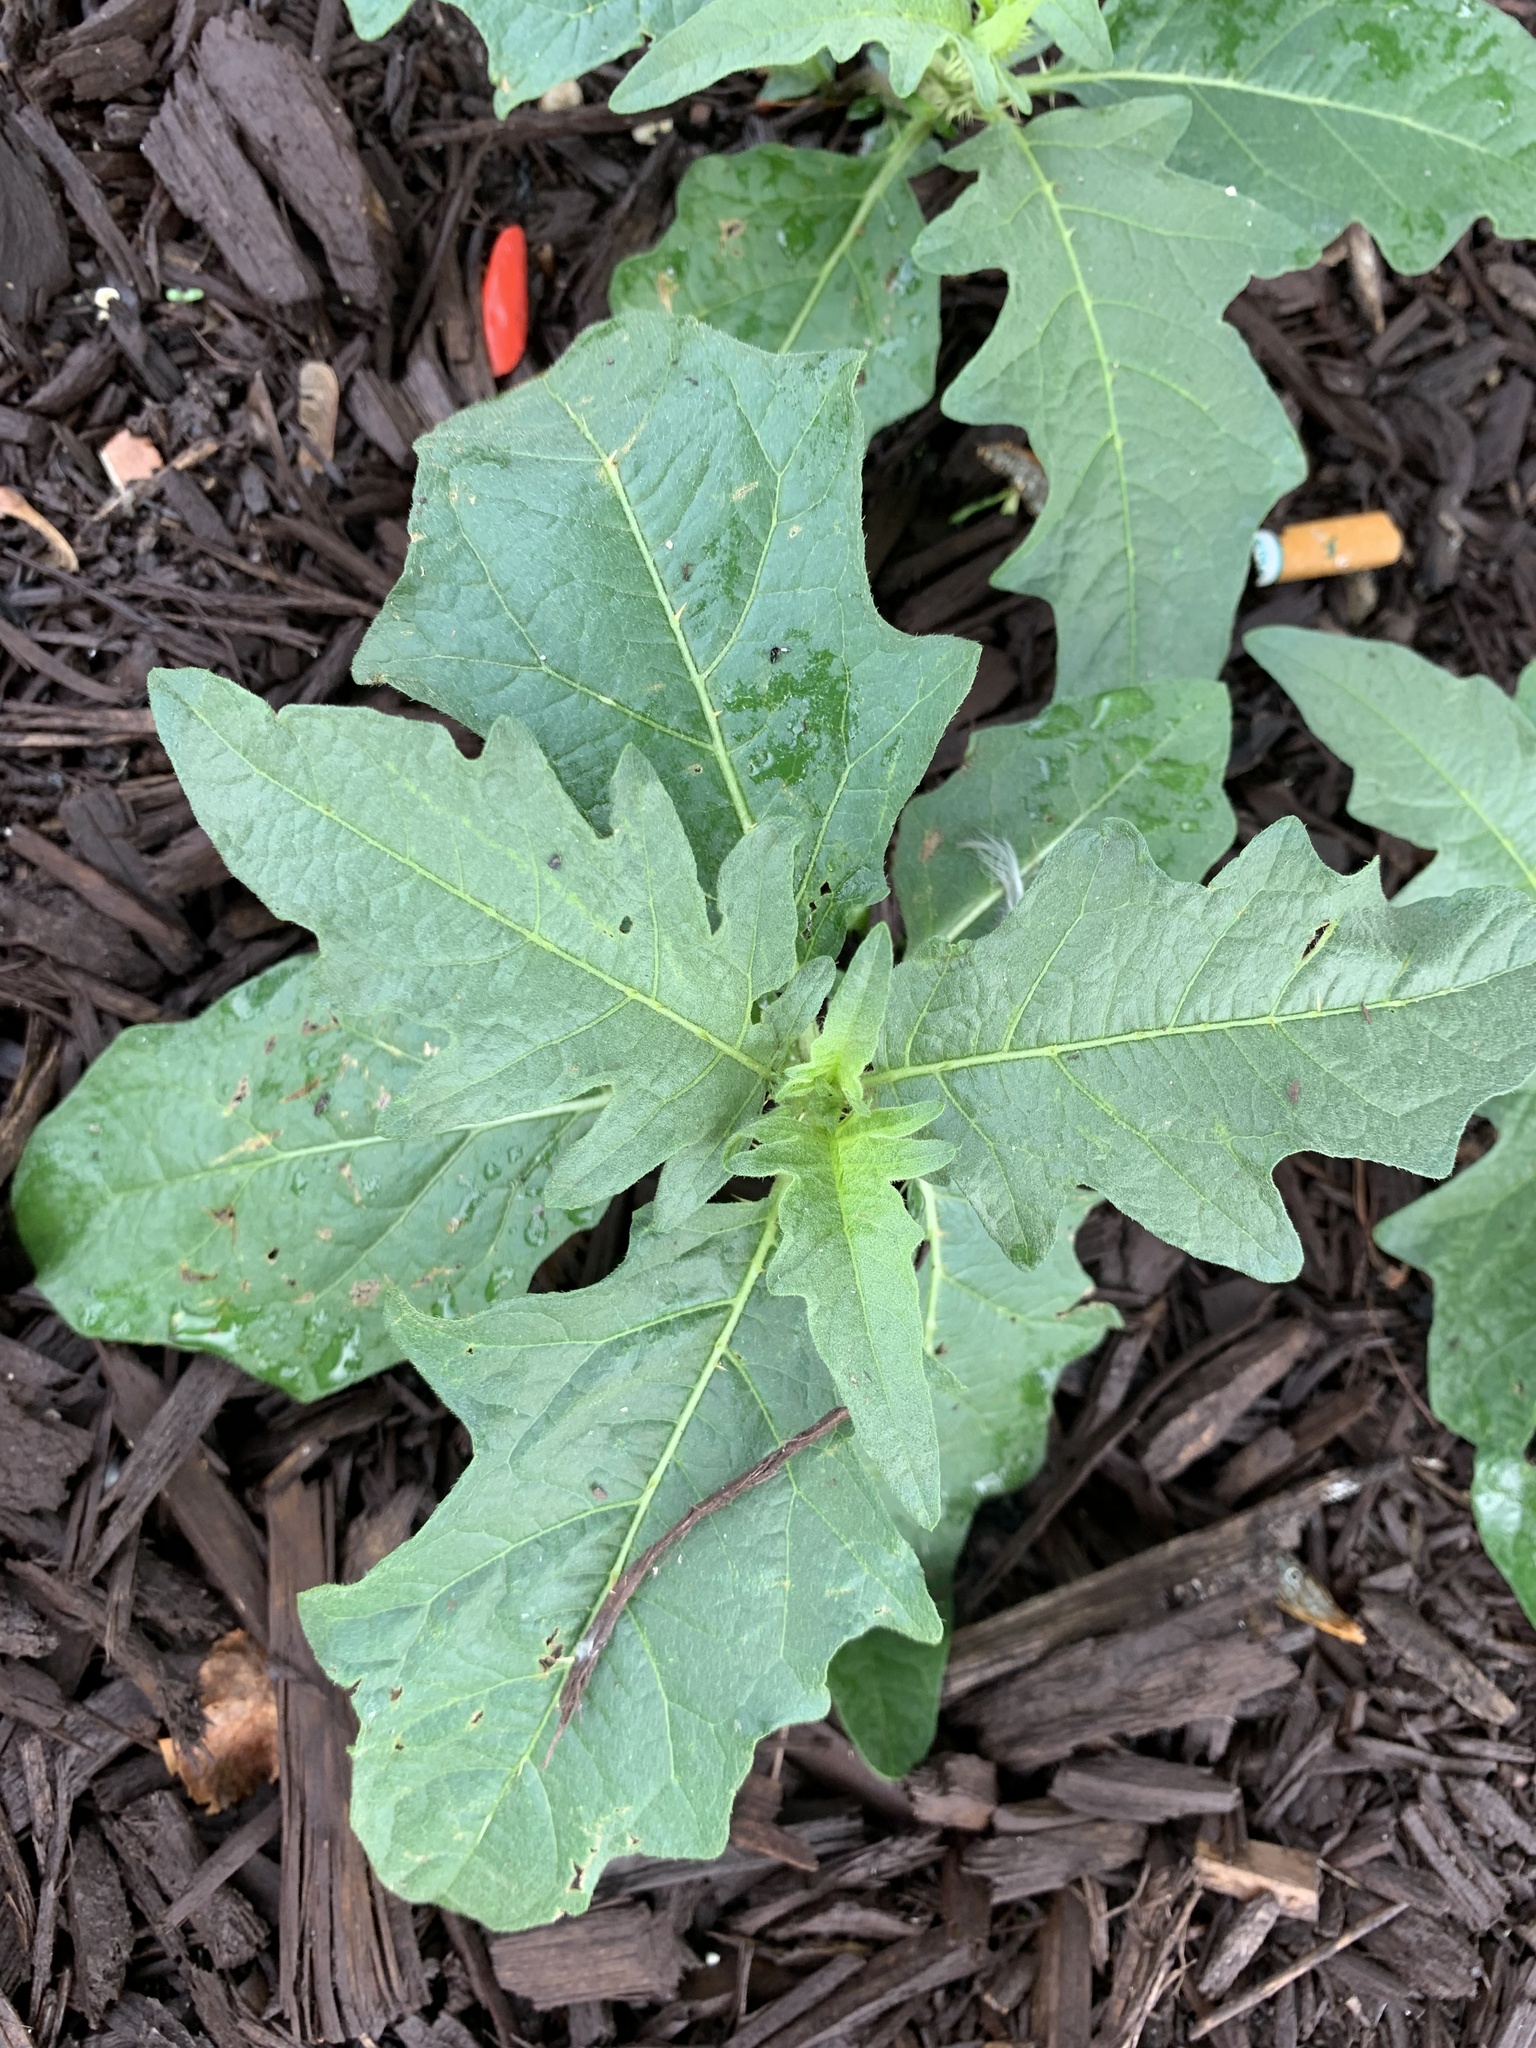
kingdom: Plantae
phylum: Tracheophyta
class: Magnoliopsida
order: Solanales
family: Solanaceae
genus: Solanum
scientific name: Solanum carolinense
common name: Horse-nettle
